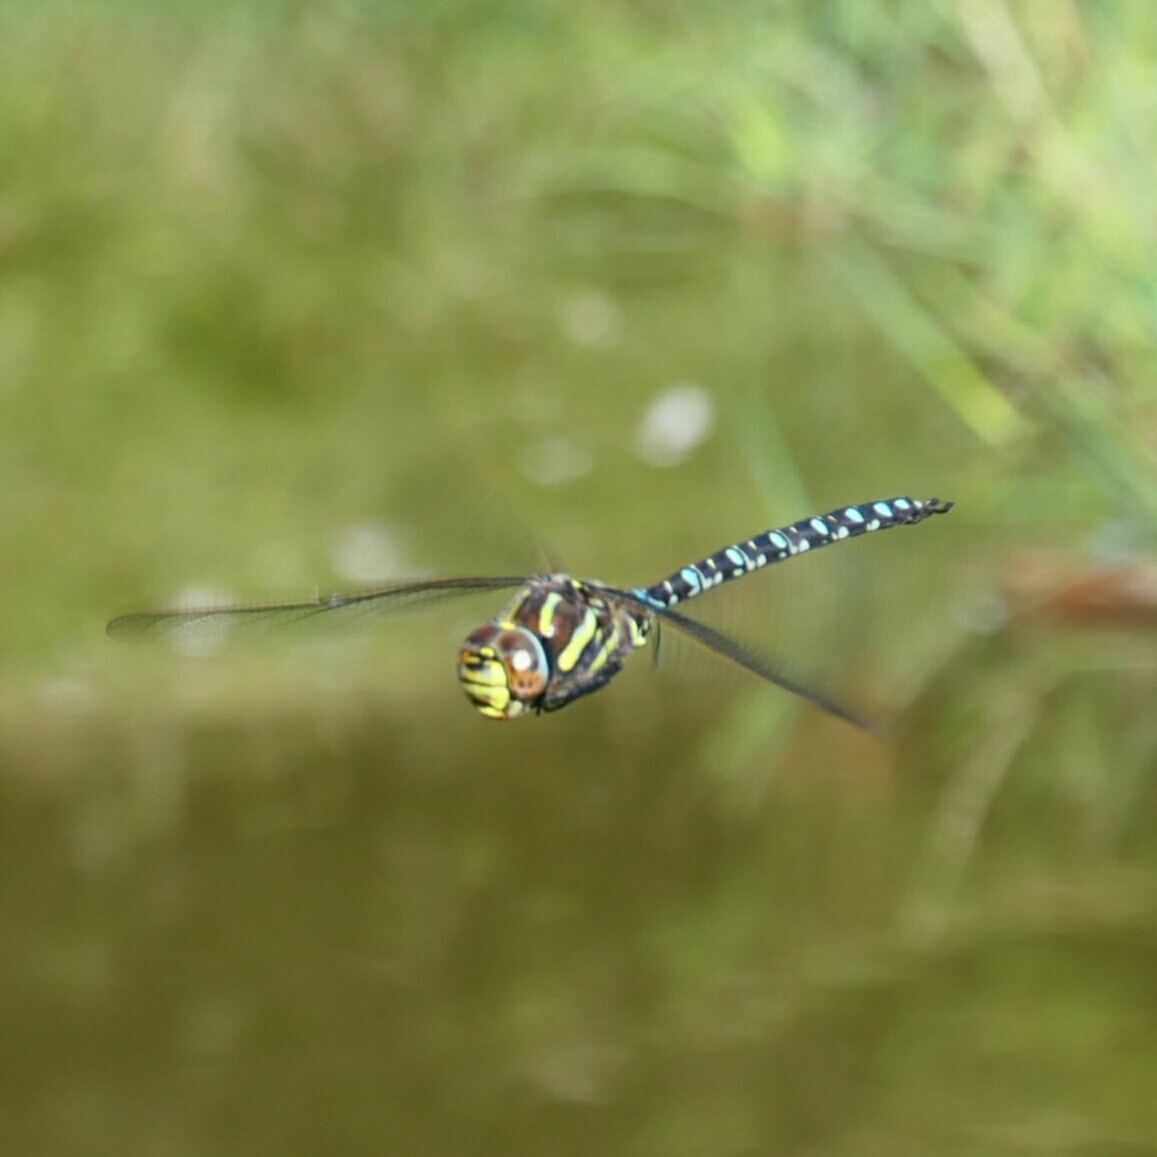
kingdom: Animalia
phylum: Arthropoda
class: Insecta
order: Odonata
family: Aeshnidae
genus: Aeshna
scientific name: Aeshna juncea
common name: Moorland hawker
